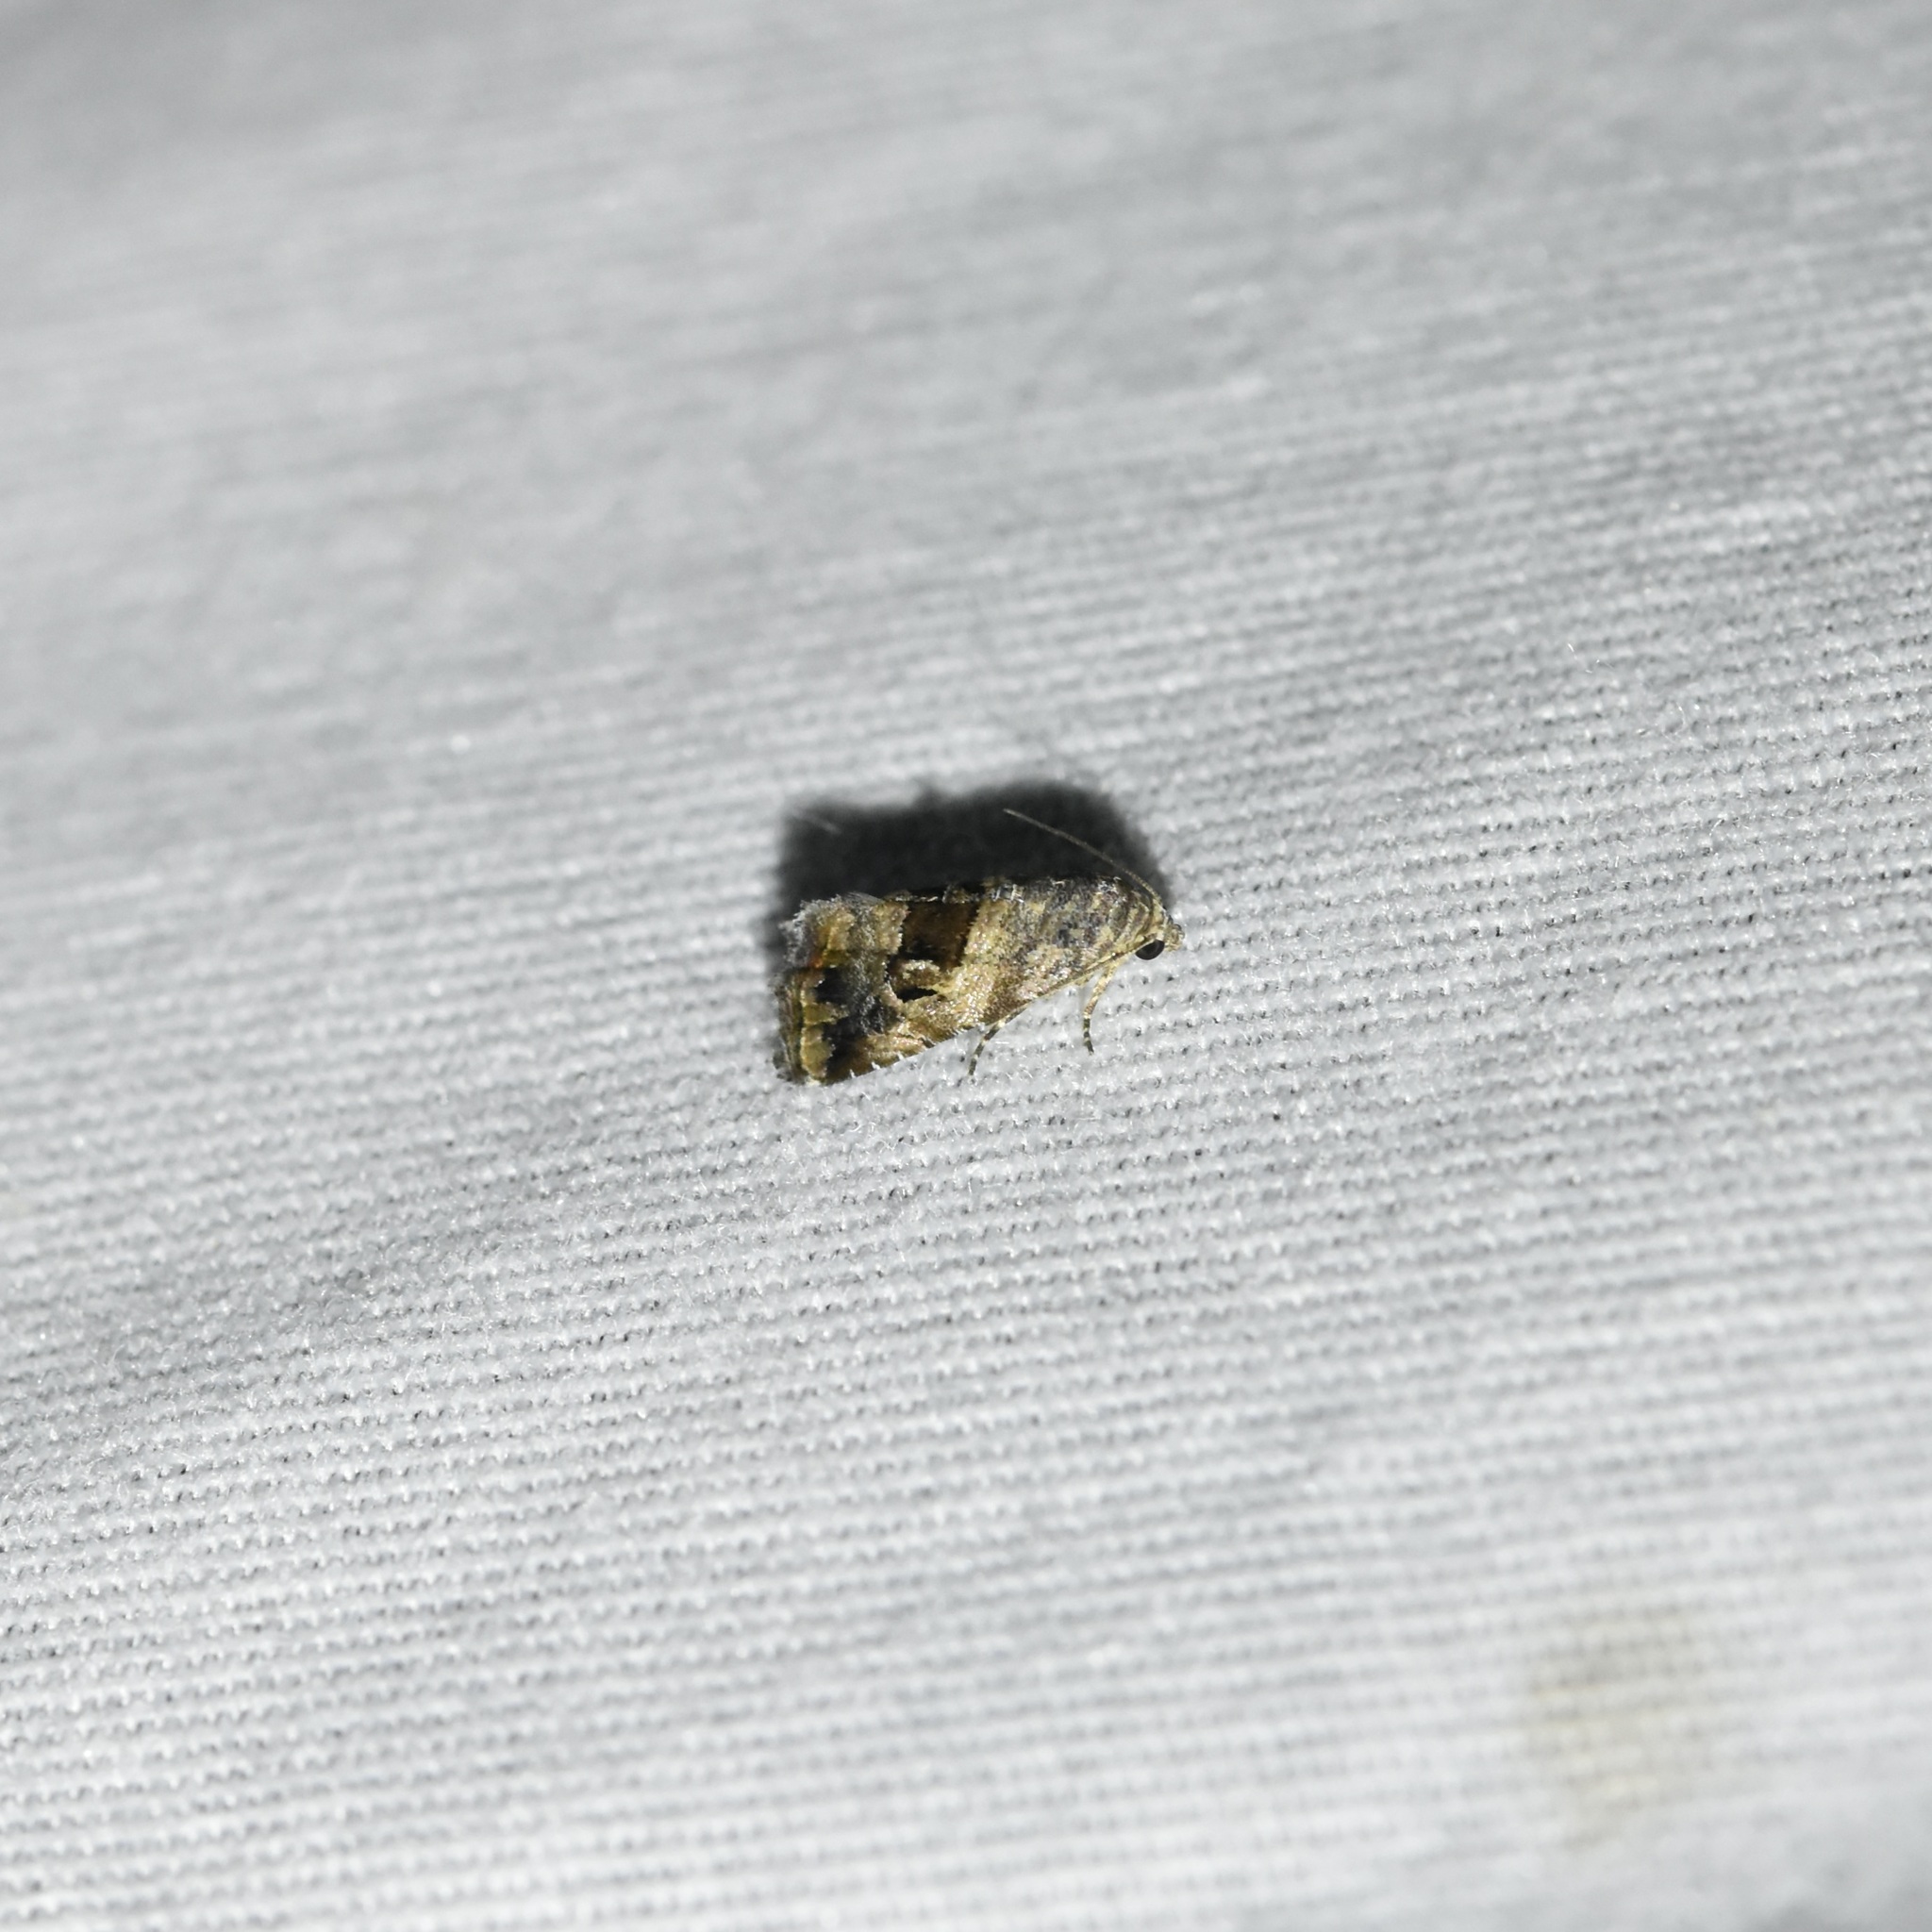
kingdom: Animalia
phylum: Arthropoda
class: Insecta
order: Lepidoptera
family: Noctuidae
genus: Tripudia
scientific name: Tripudia quadrifera
